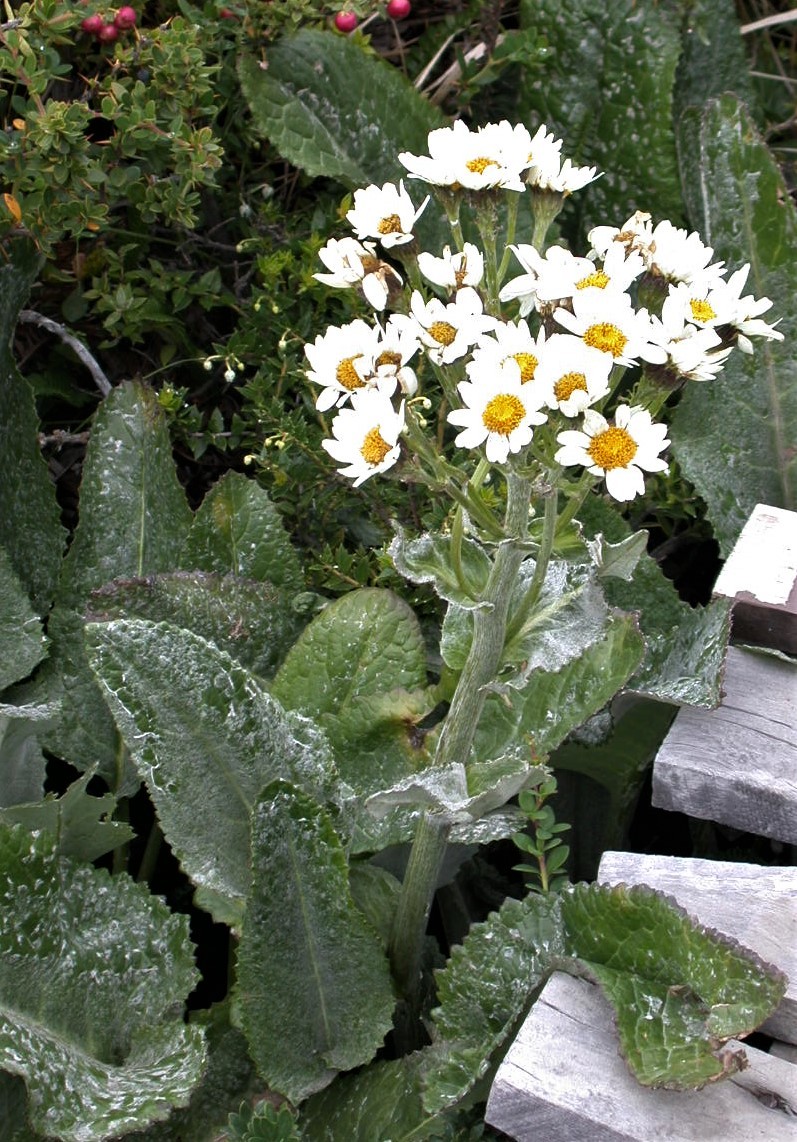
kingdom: Plantae
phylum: Tracheophyta
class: Magnoliopsida
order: Asterales
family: Asteraceae
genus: Senecio
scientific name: Senecio smithii
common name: Magellan ragwort
